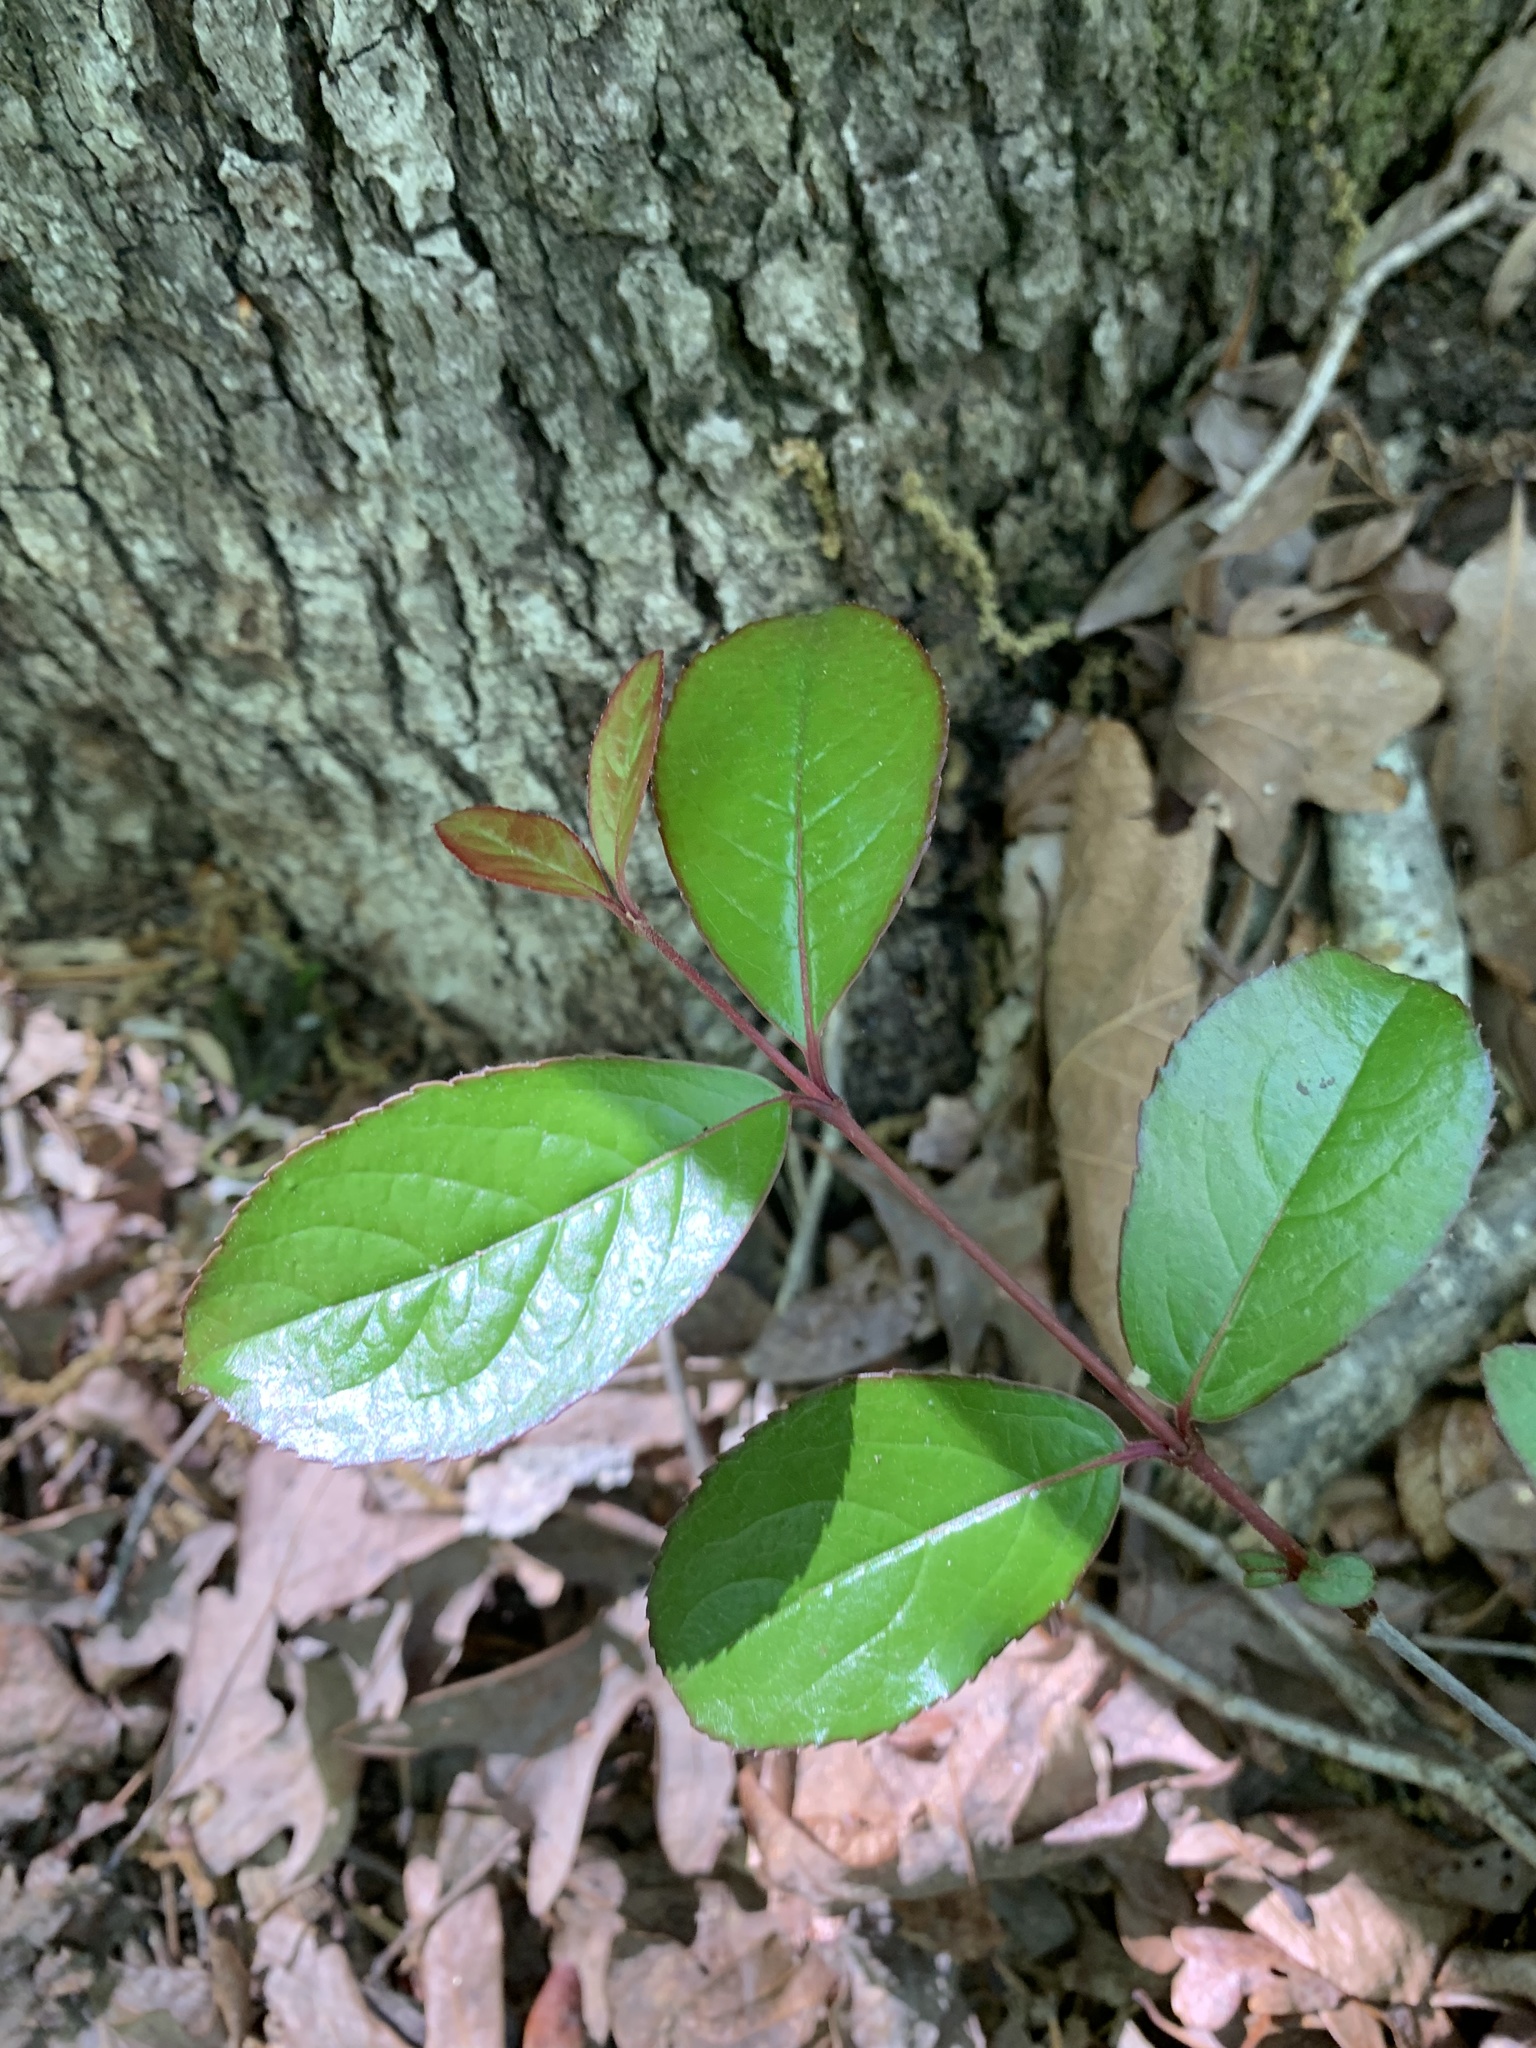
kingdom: Plantae
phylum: Tracheophyta
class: Magnoliopsida
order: Dipsacales
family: Viburnaceae
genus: Viburnum
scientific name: Viburnum rufidulum
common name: Blue haw
